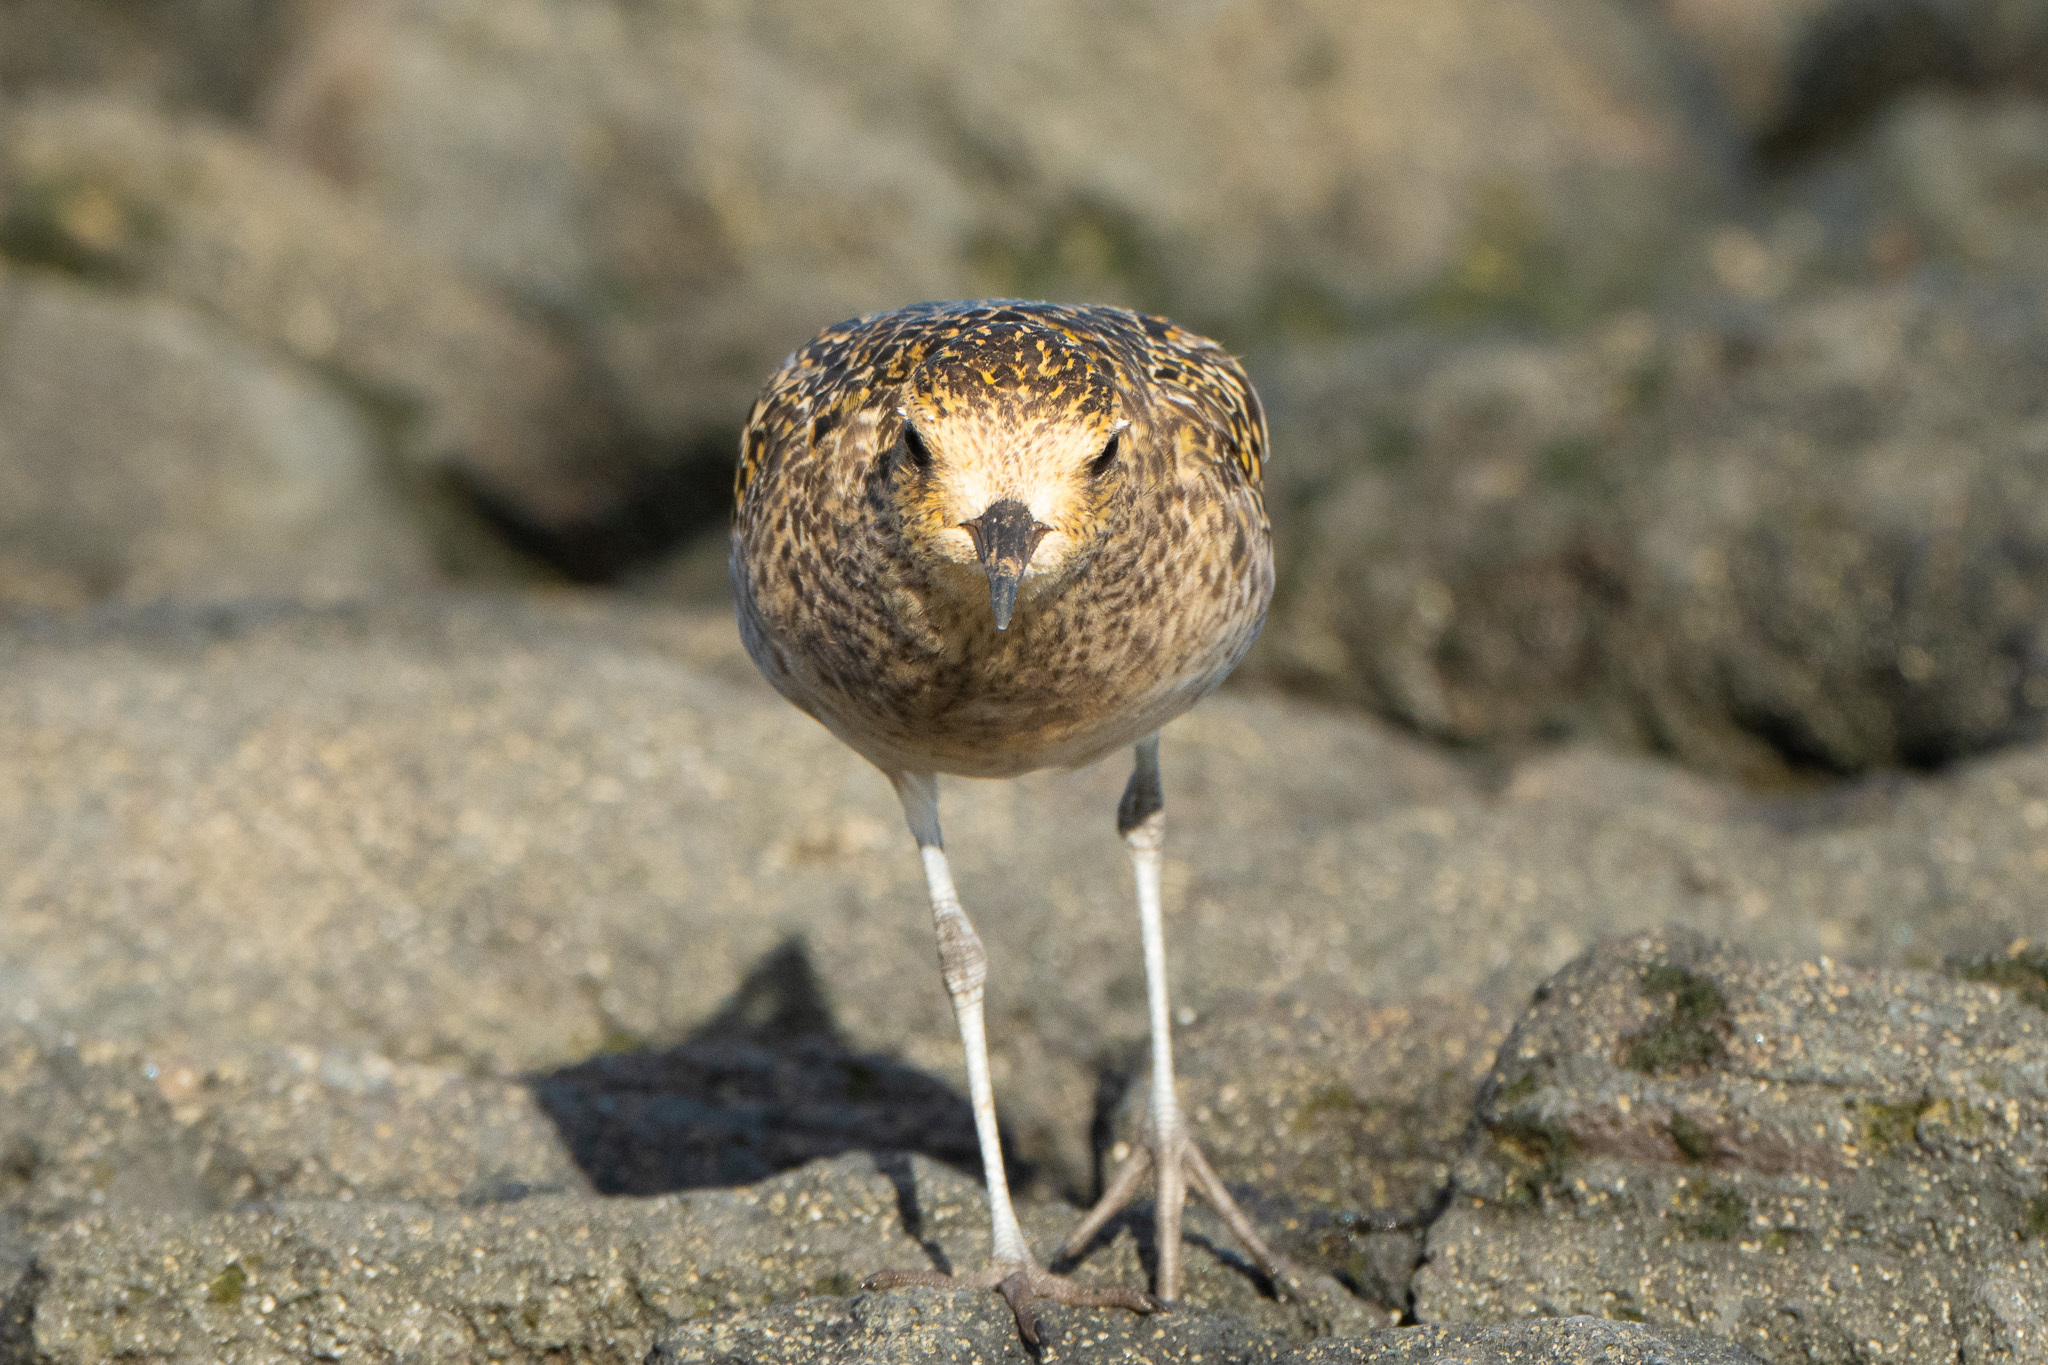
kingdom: Animalia
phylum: Chordata
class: Aves
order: Charadriiformes
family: Charadriidae
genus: Pluvialis
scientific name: Pluvialis fulva
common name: Pacific golden plover
